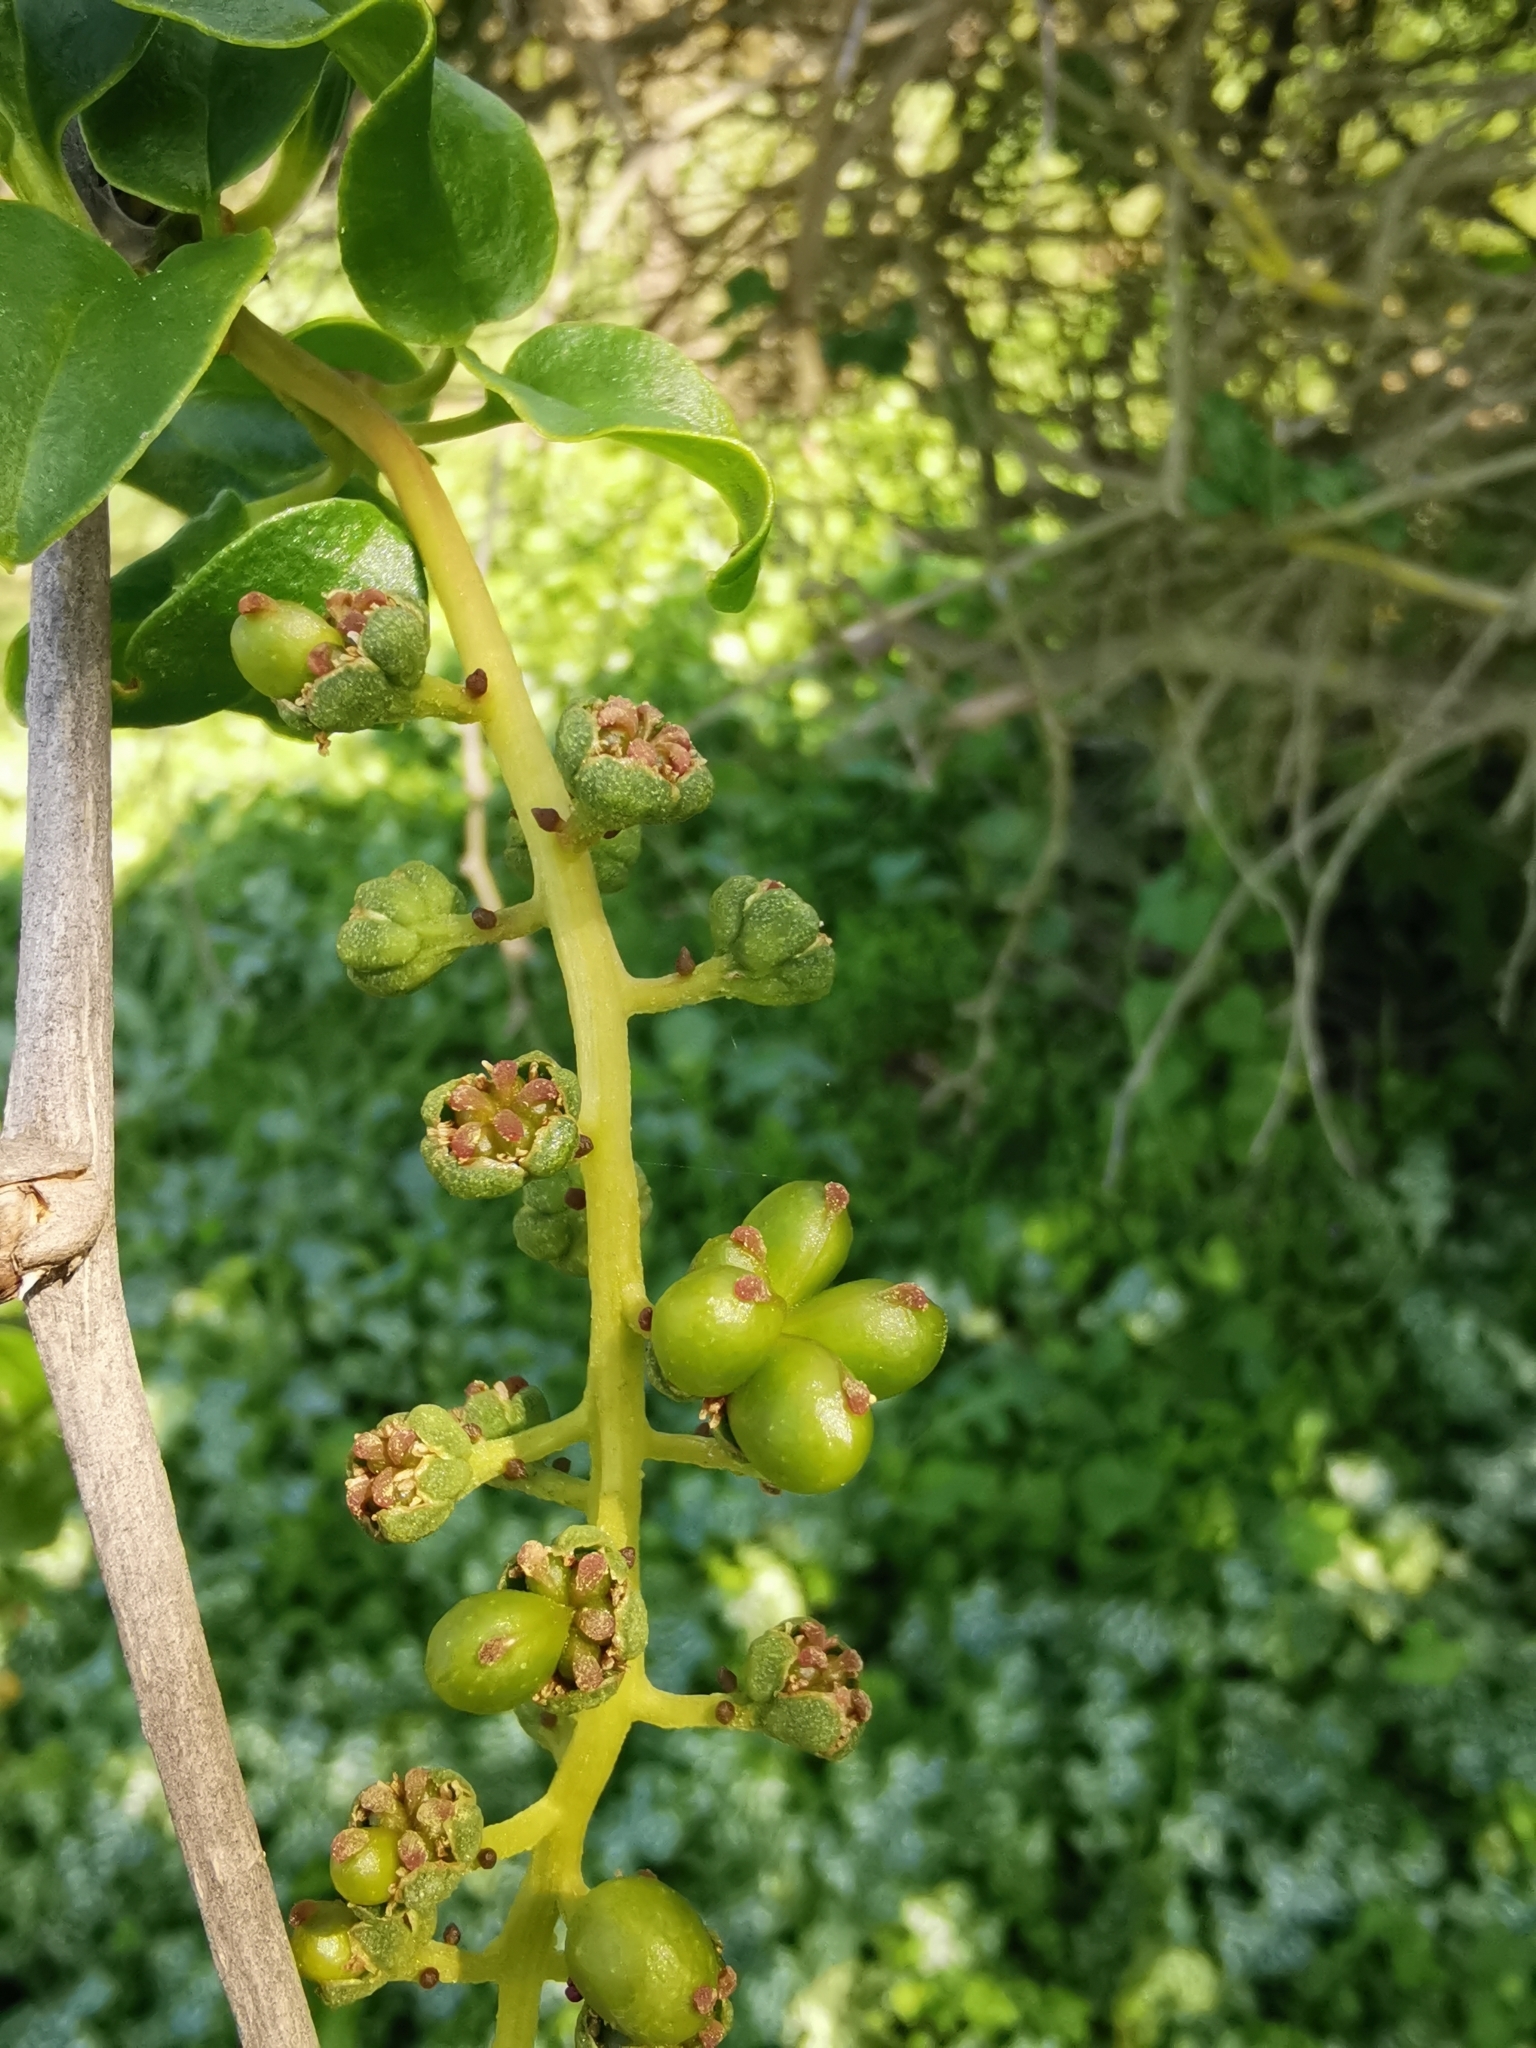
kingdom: Plantae
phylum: Tracheophyta
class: Magnoliopsida
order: Caryophyllales
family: Phytolaccaceae
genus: Anisomeria
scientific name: Anisomeria littoralis
